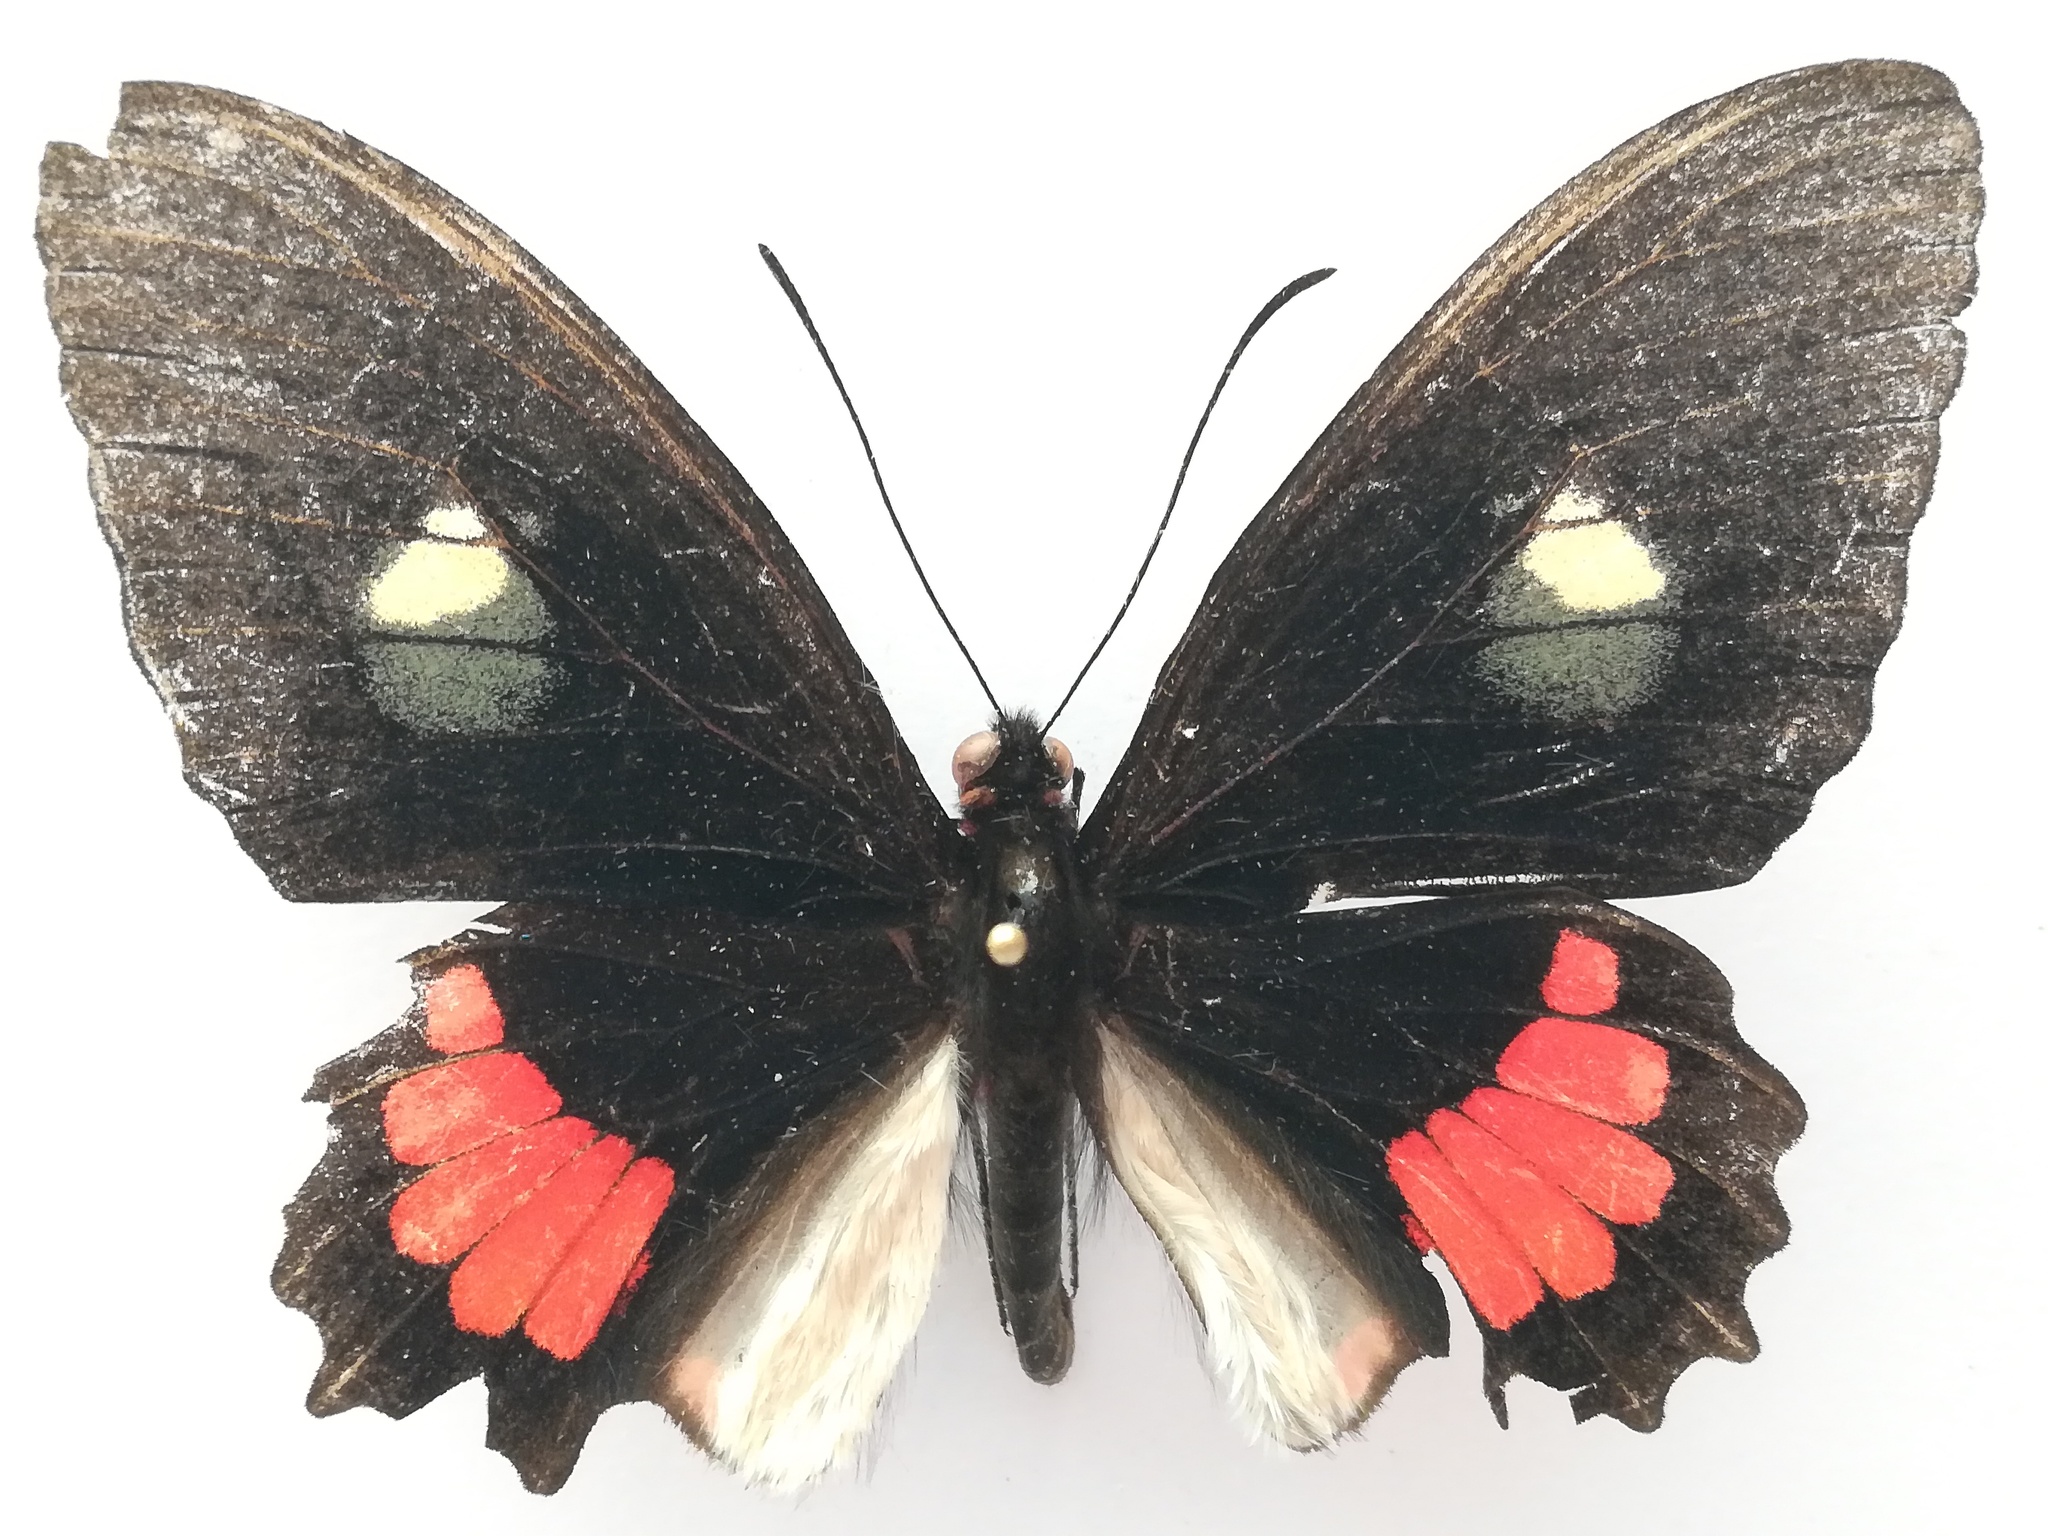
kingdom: Animalia
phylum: Arthropoda
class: Insecta
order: Lepidoptera
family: Papilionidae
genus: Parides
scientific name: Parides iphidamas
